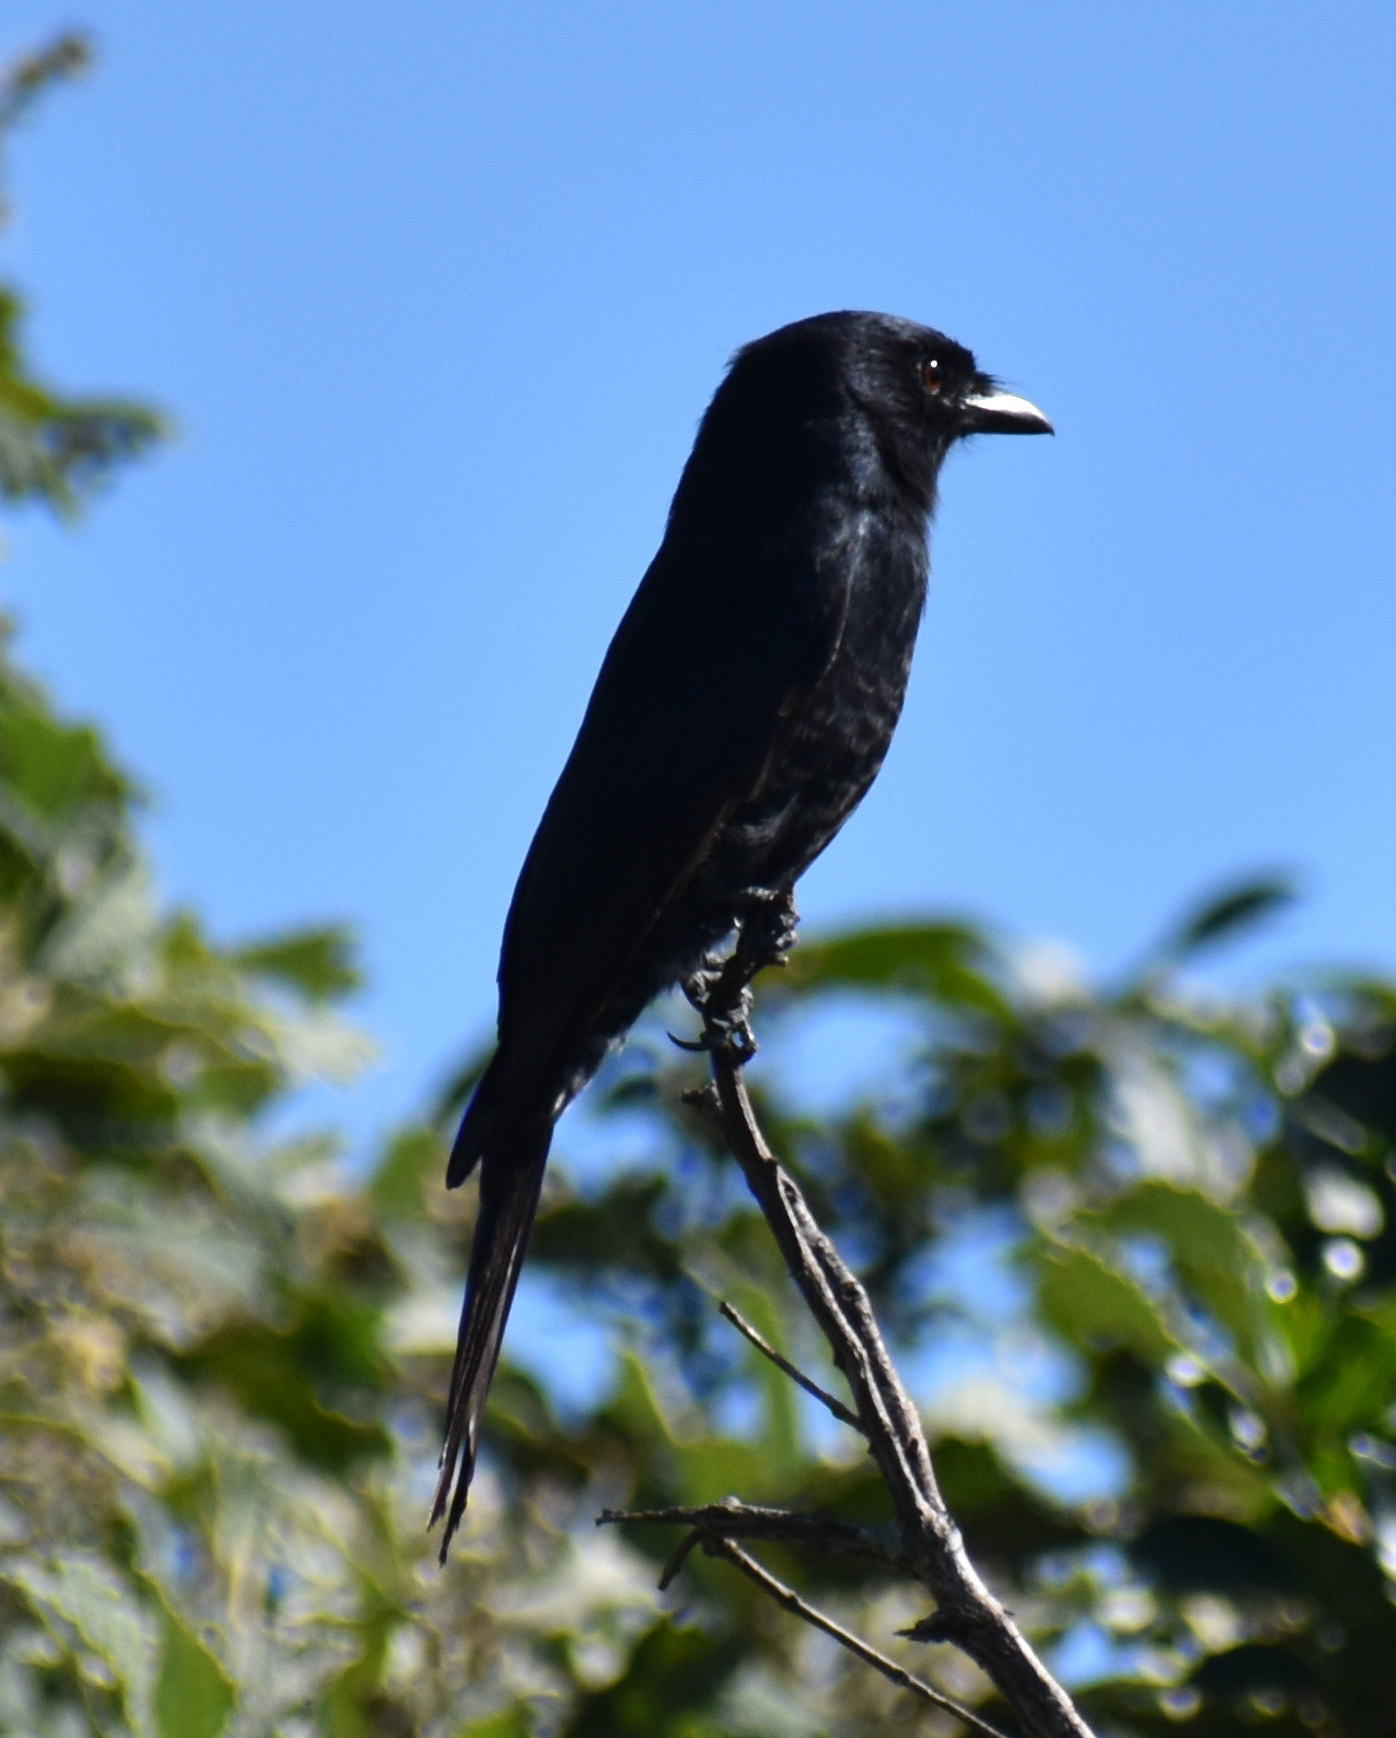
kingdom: Animalia
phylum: Chordata
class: Aves
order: Passeriformes
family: Dicruridae
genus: Dicrurus
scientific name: Dicrurus adsimilis
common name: Fork-tailed drongo
